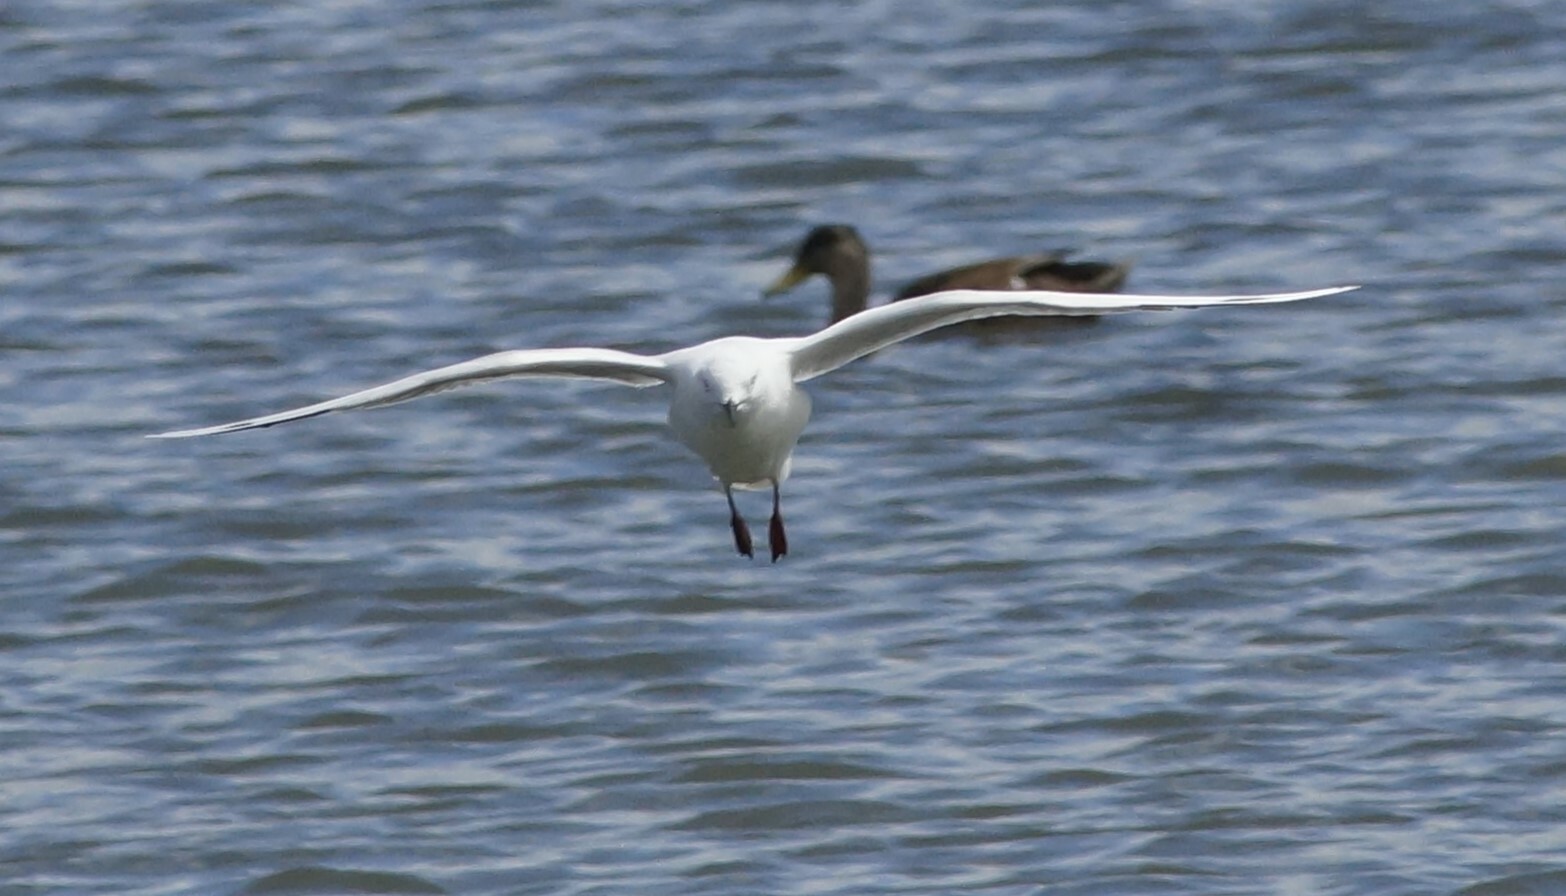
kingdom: Animalia
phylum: Chordata
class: Aves
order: Charadriiformes
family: Laridae
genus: Chroicocephalus
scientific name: Chroicocephalus bulleri
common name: Black-billed gull
